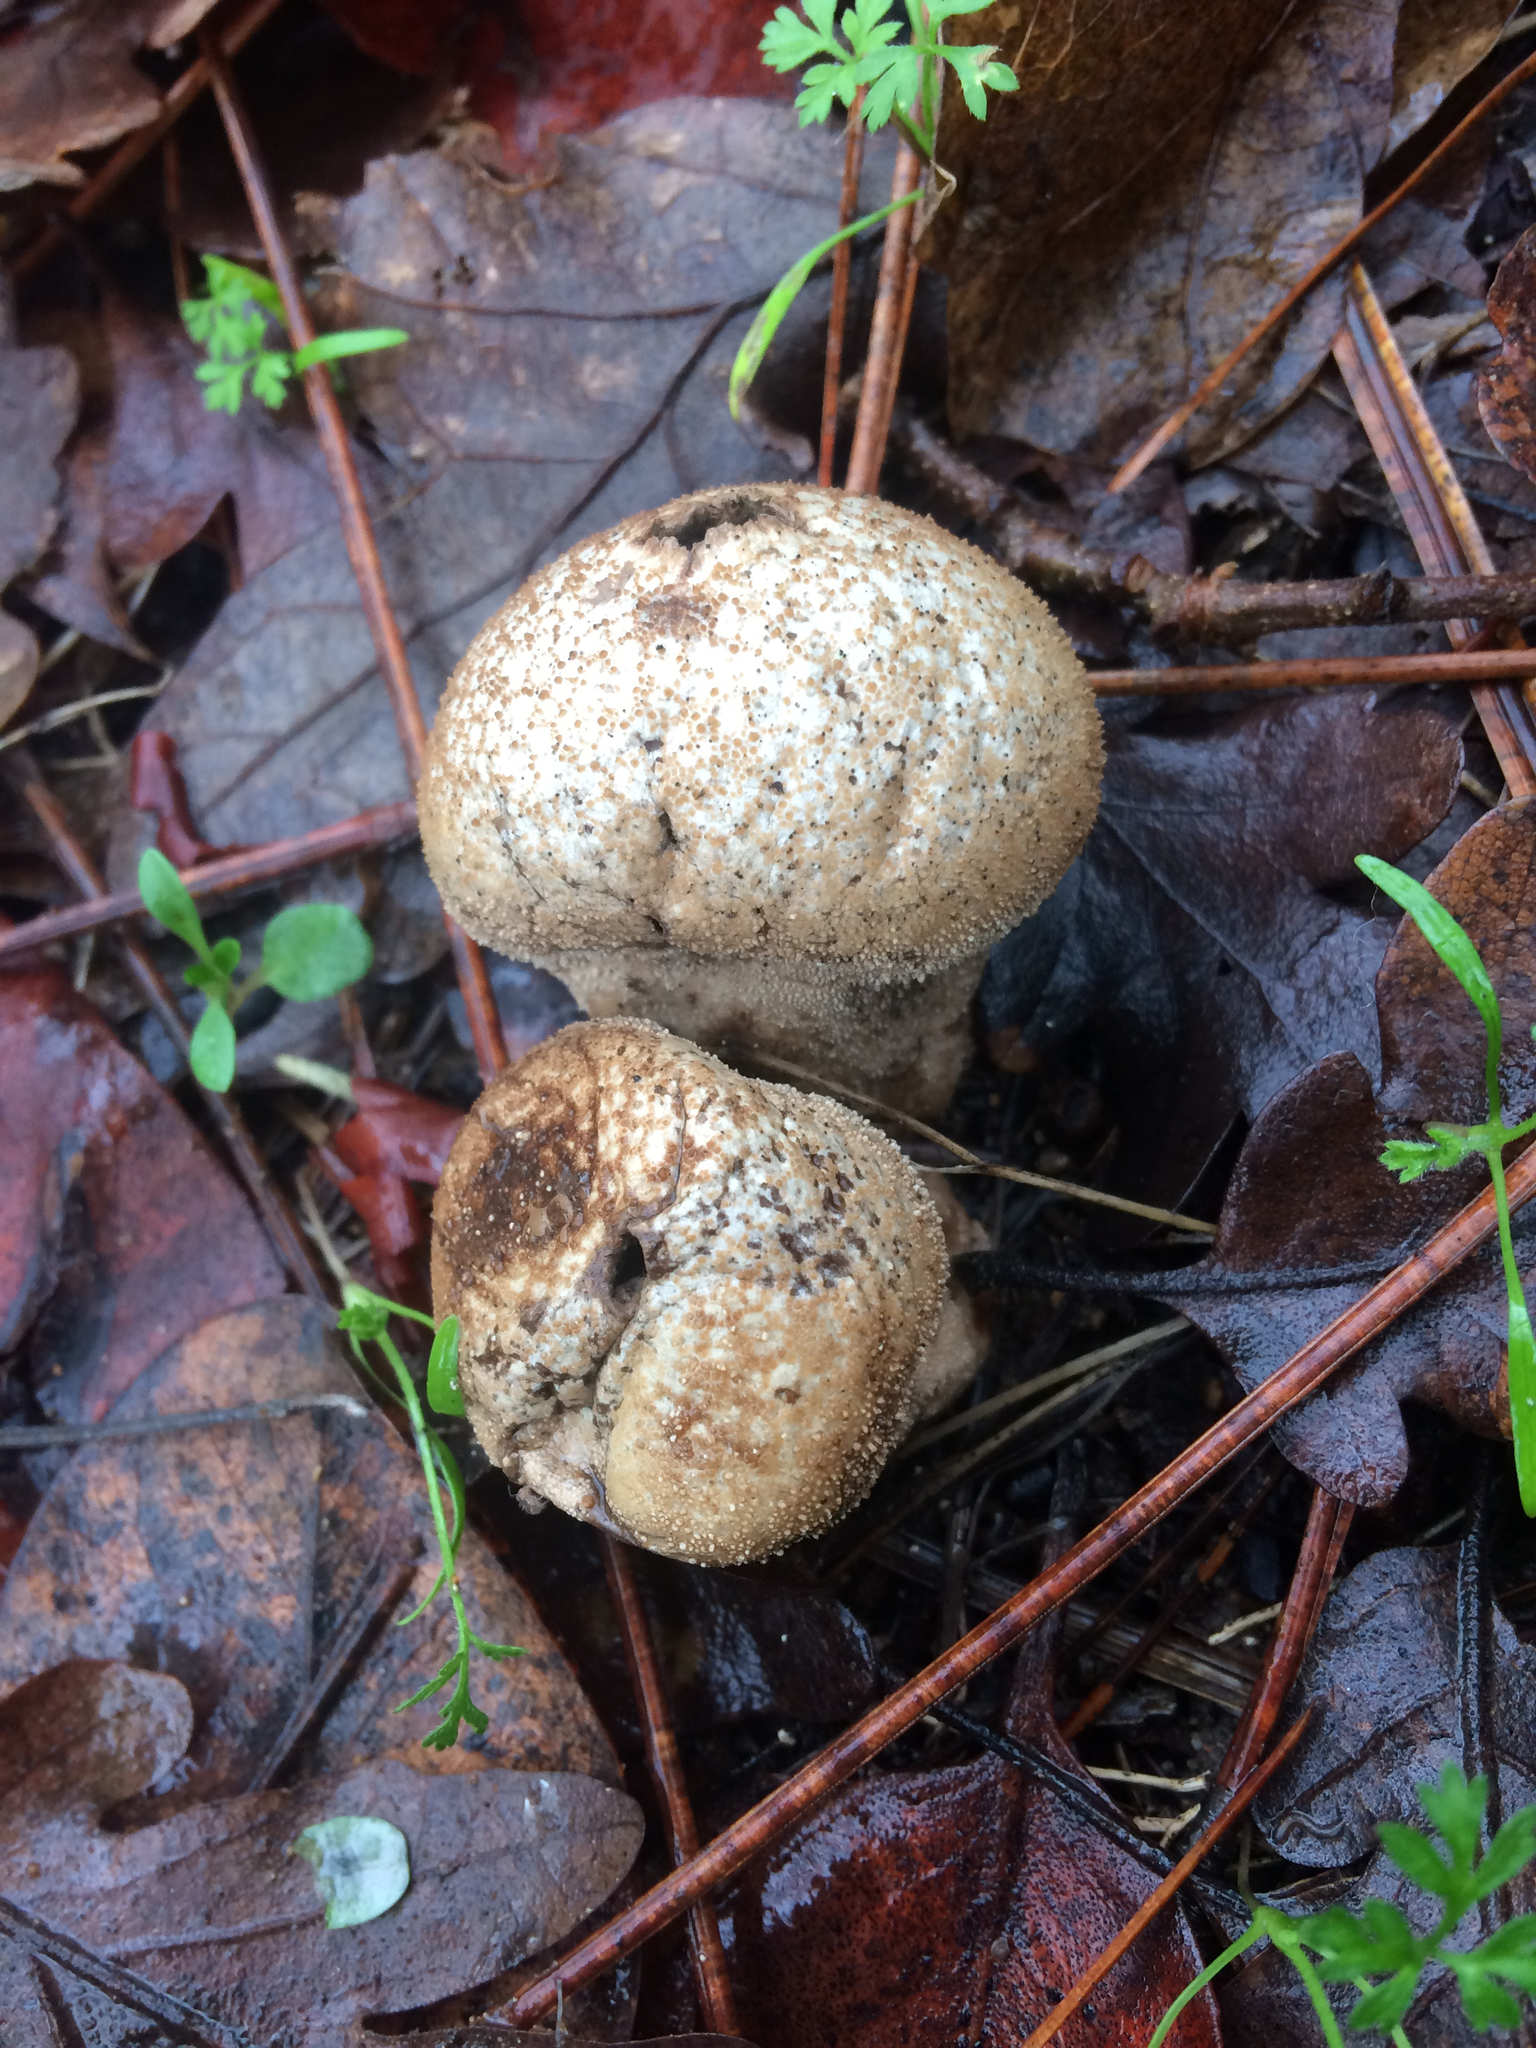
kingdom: Fungi
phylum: Basidiomycota
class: Agaricomycetes
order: Agaricales
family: Lycoperdaceae
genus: Apioperdon
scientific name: Apioperdon pyriforme
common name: Pear-shaped puffball
